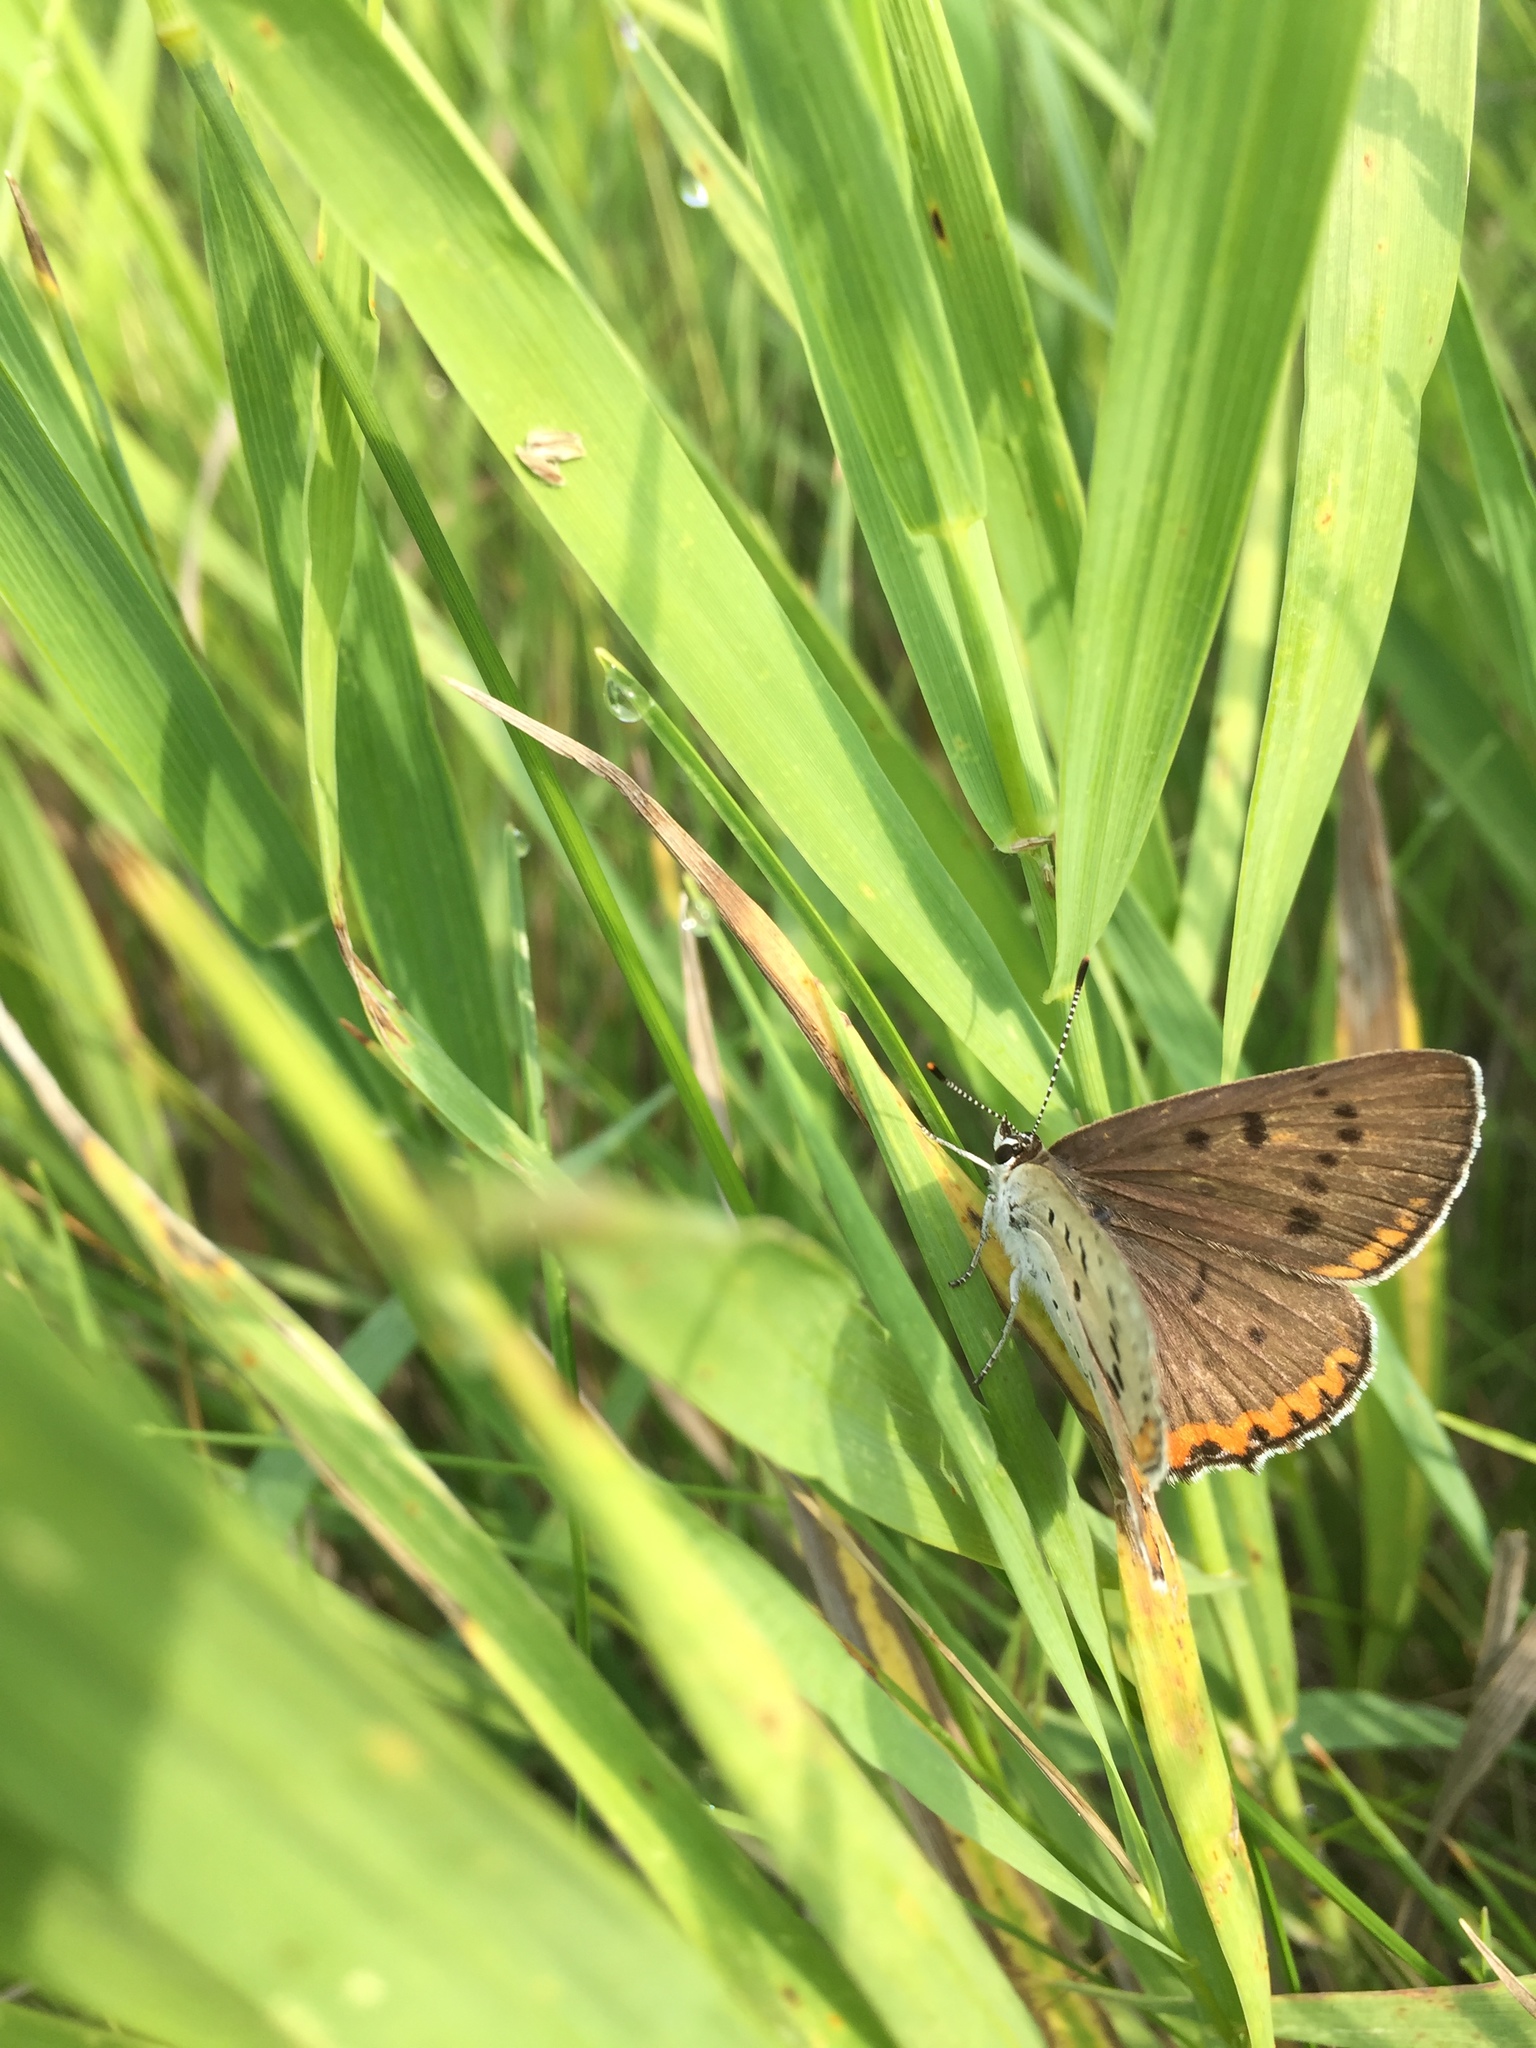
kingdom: Animalia
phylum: Arthropoda
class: Insecta
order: Lepidoptera
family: Lycaenidae
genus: Tharsalea
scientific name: Tharsalea dione
